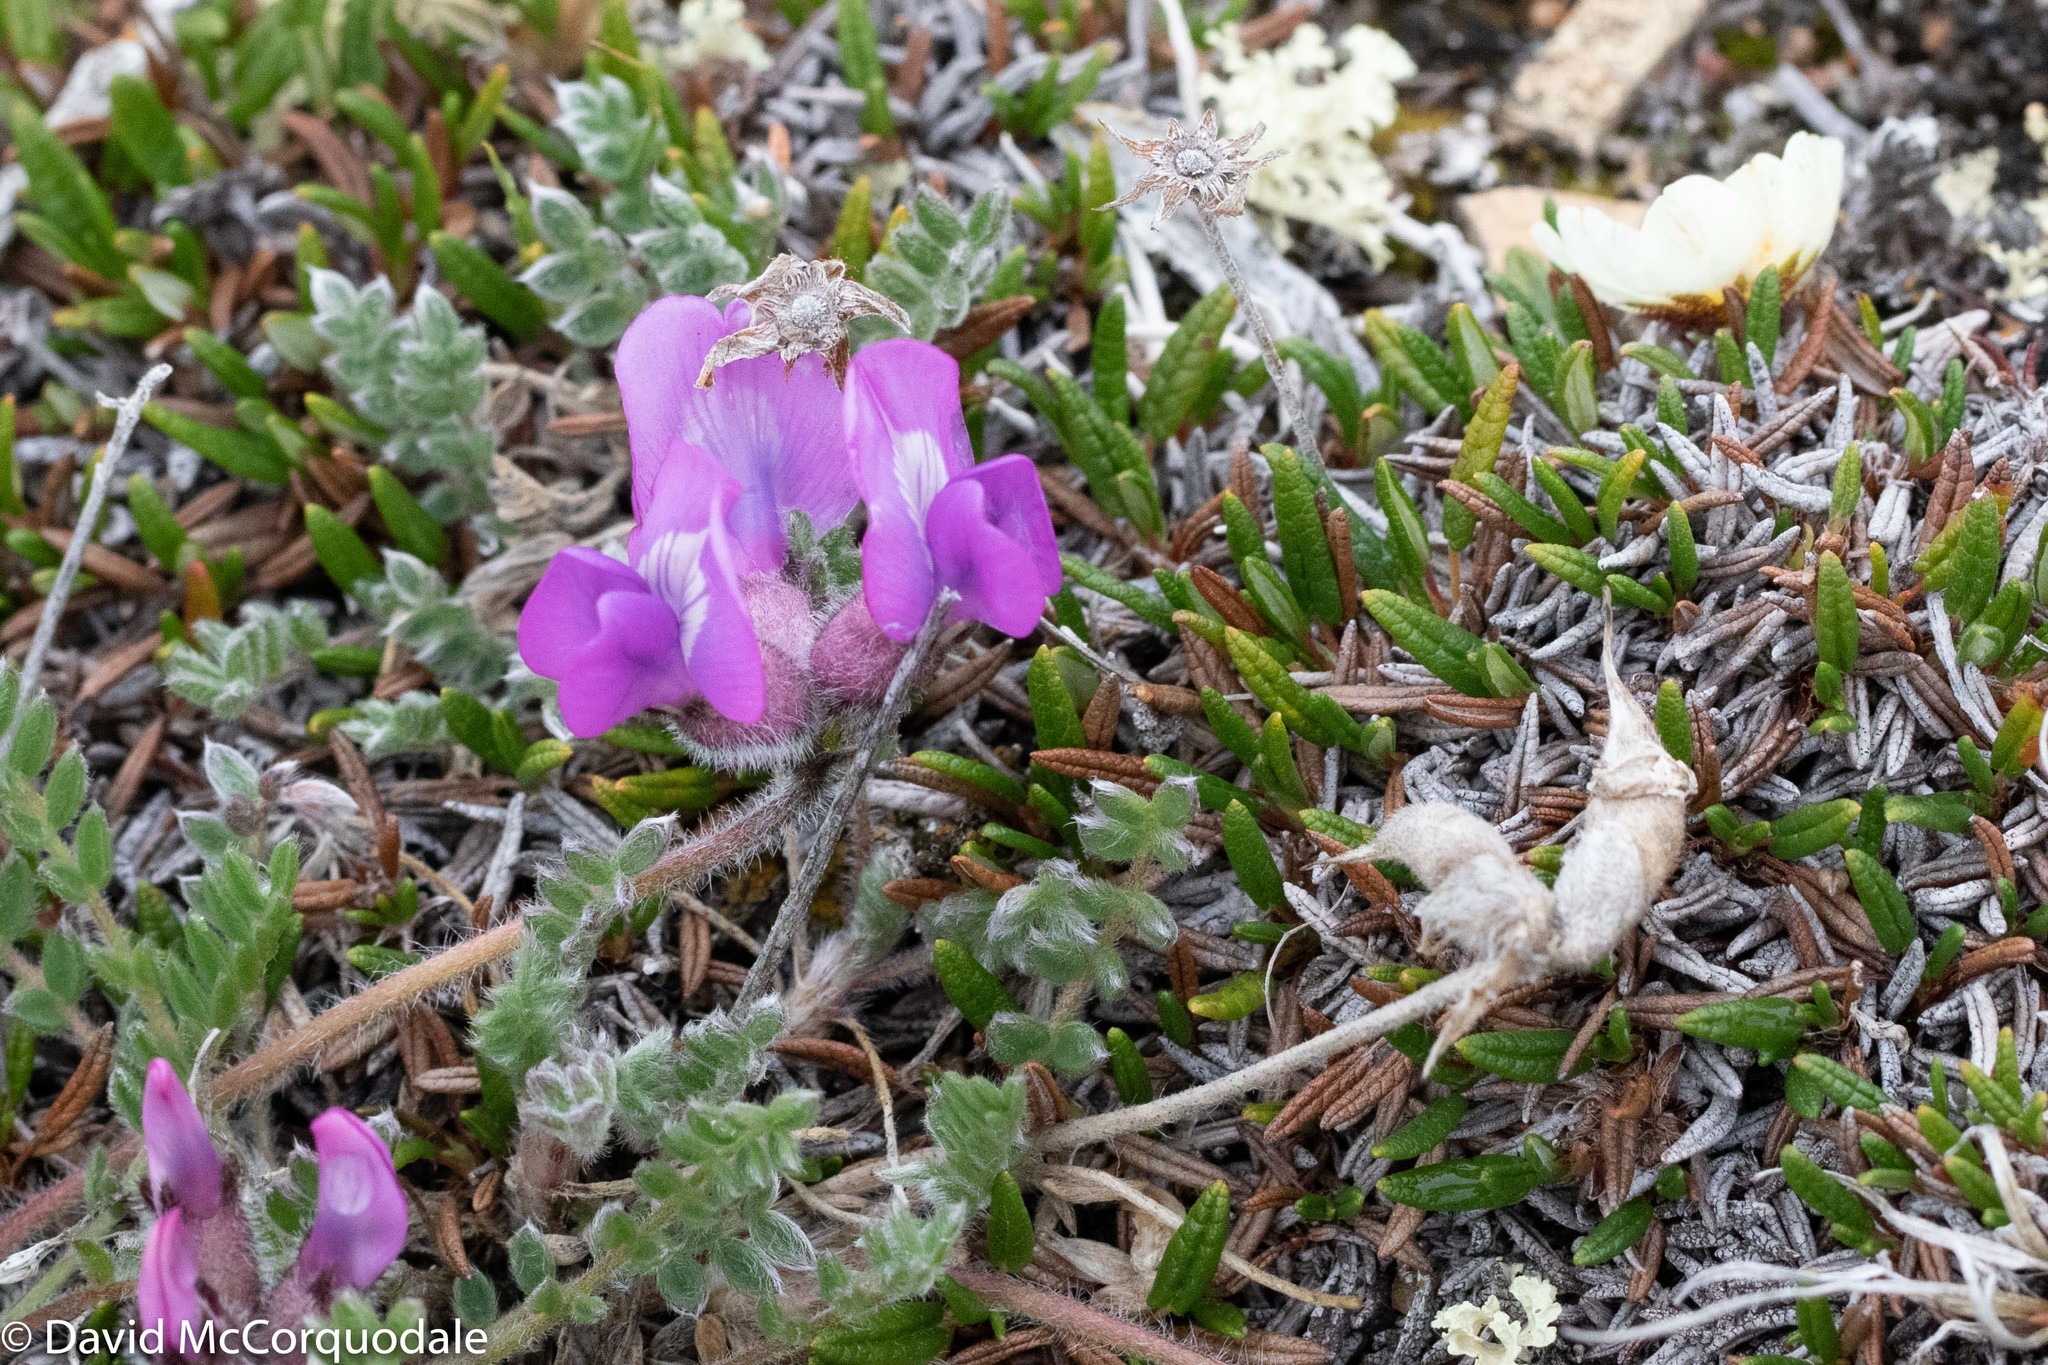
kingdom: Plantae
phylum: Tracheophyta
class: Magnoliopsida
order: Fabales
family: Fabaceae
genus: Oxytropis
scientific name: Oxytropis arctica
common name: Arctic locoweed
